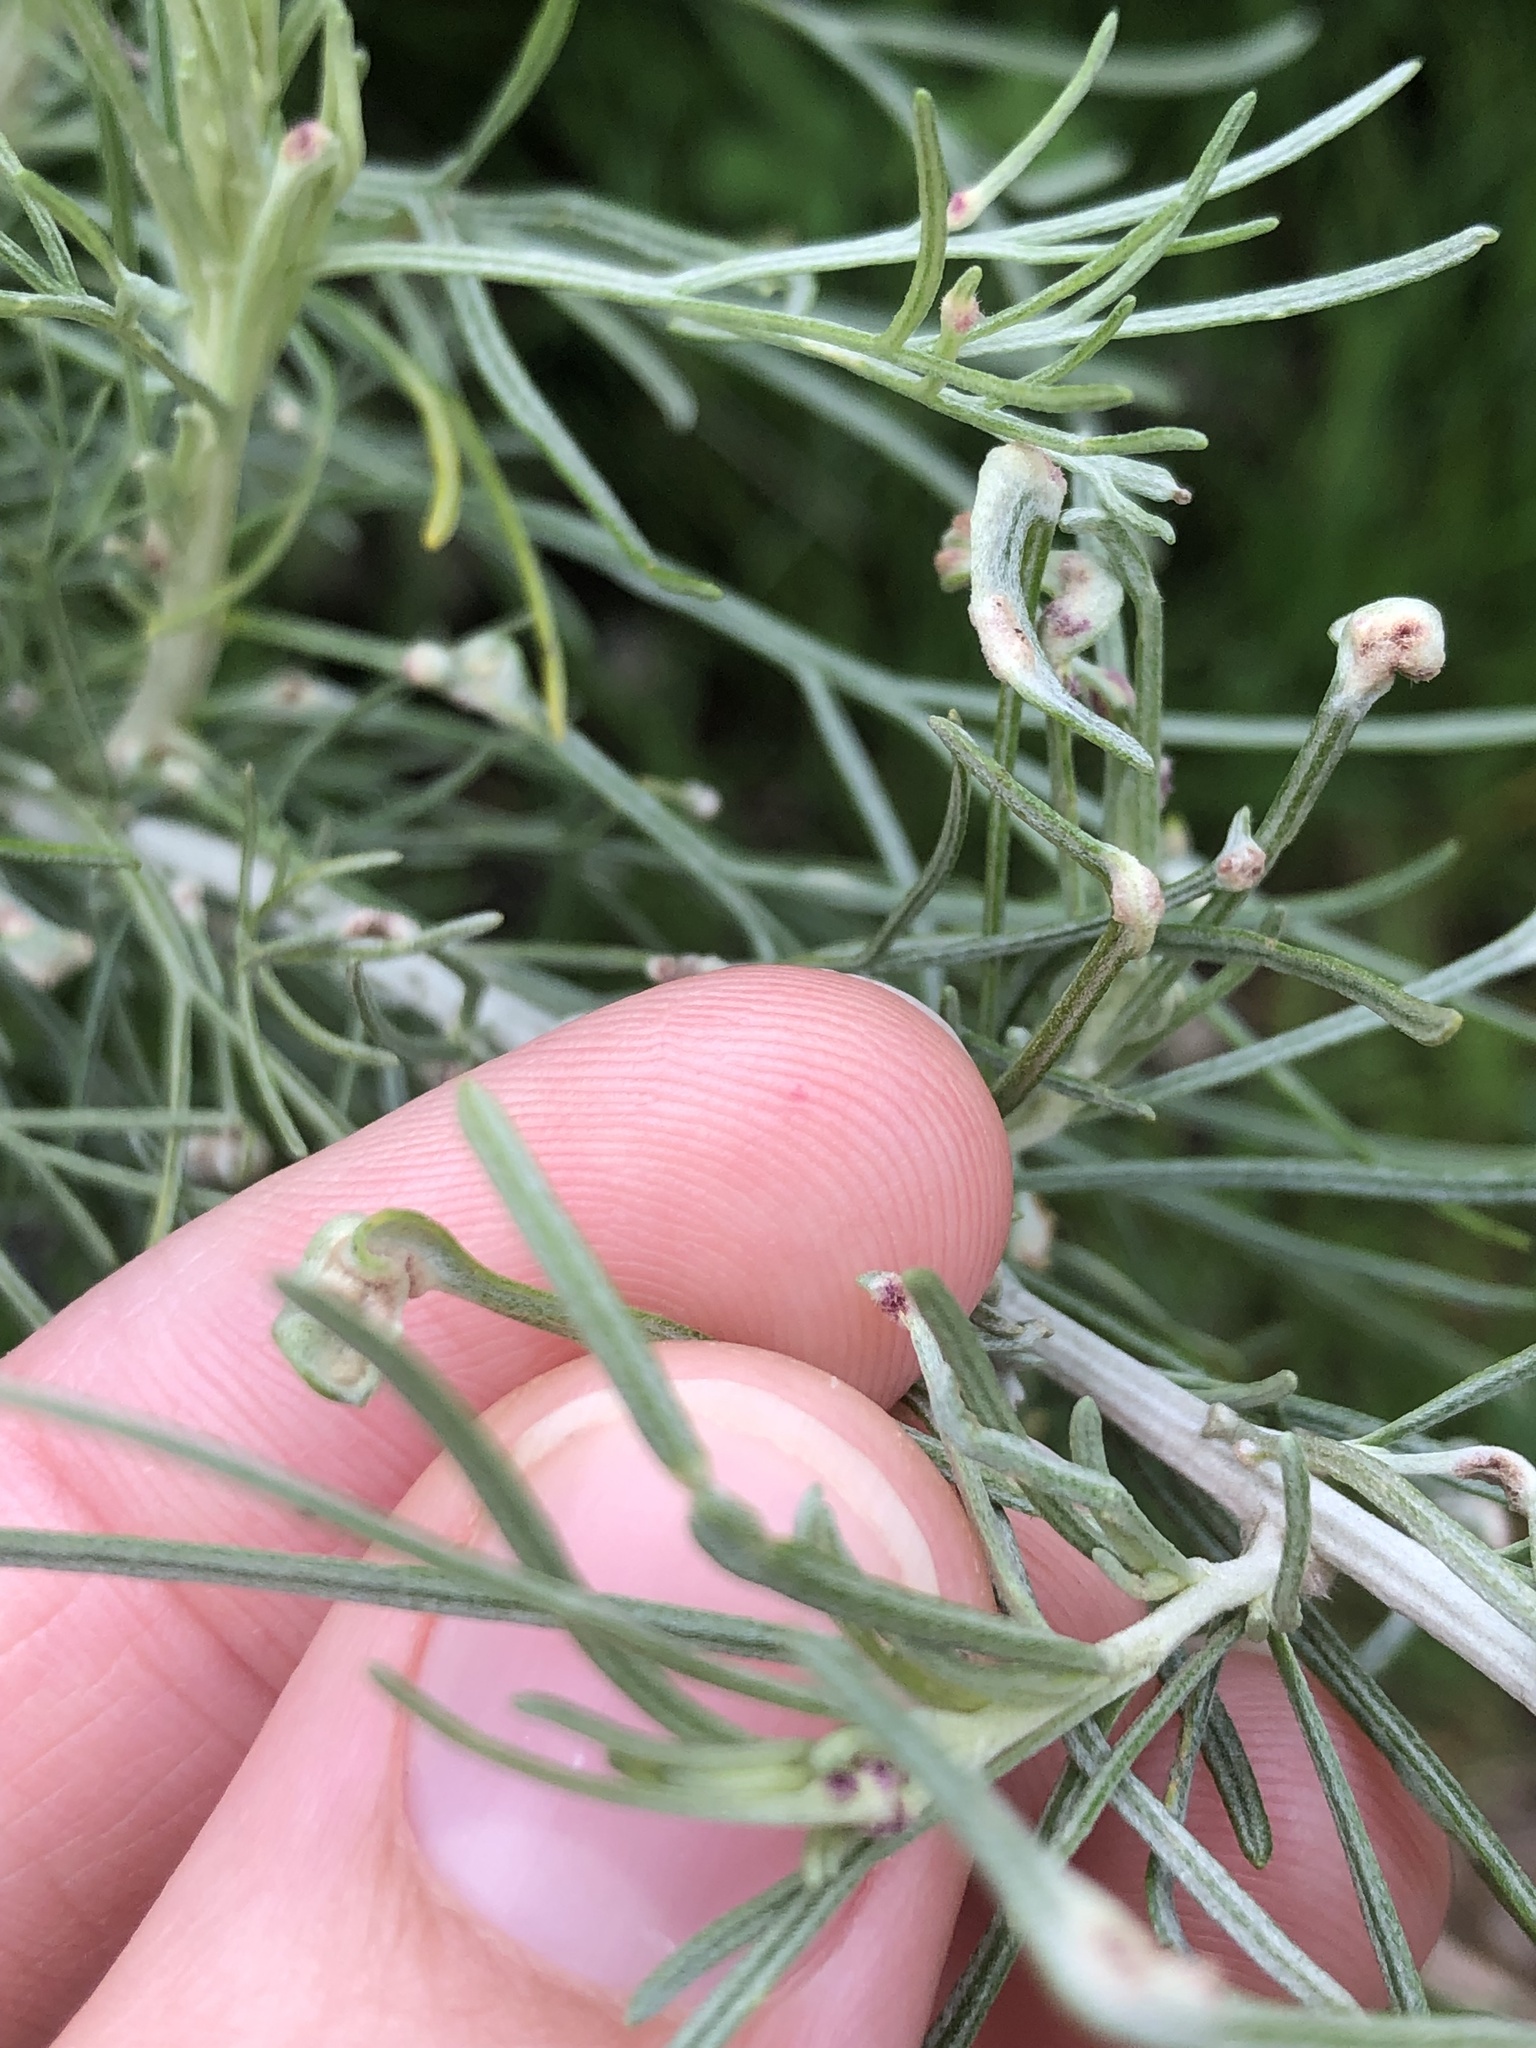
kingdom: Animalia
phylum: Arthropoda
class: Arachnida
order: Trombidiformes
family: Eriophyidae
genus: Aceria
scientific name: Aceria
